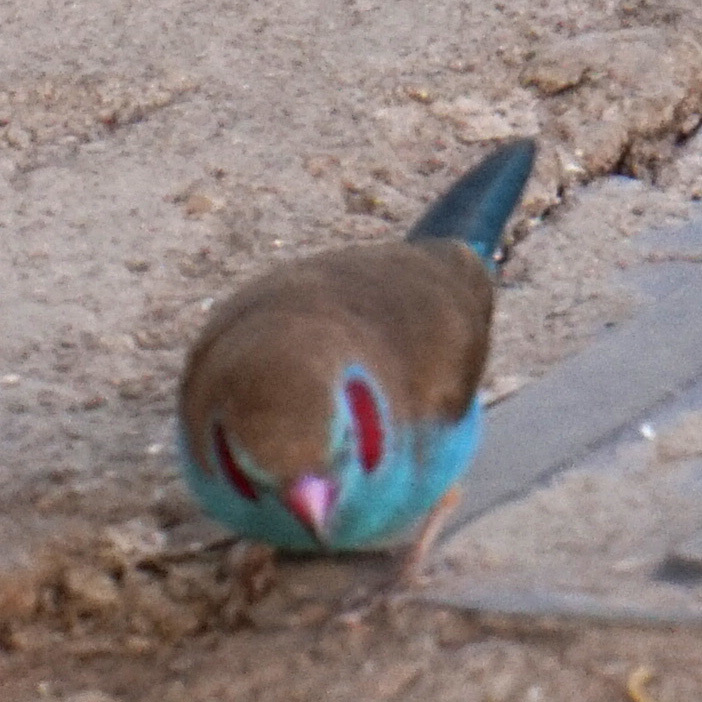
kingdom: Animalia
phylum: Chordata
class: Aves
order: Passeriformes
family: Estrildidae
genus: Uraeginthus
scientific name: Uraeginthus bengalus
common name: Red-cheeked cordon-bleu
